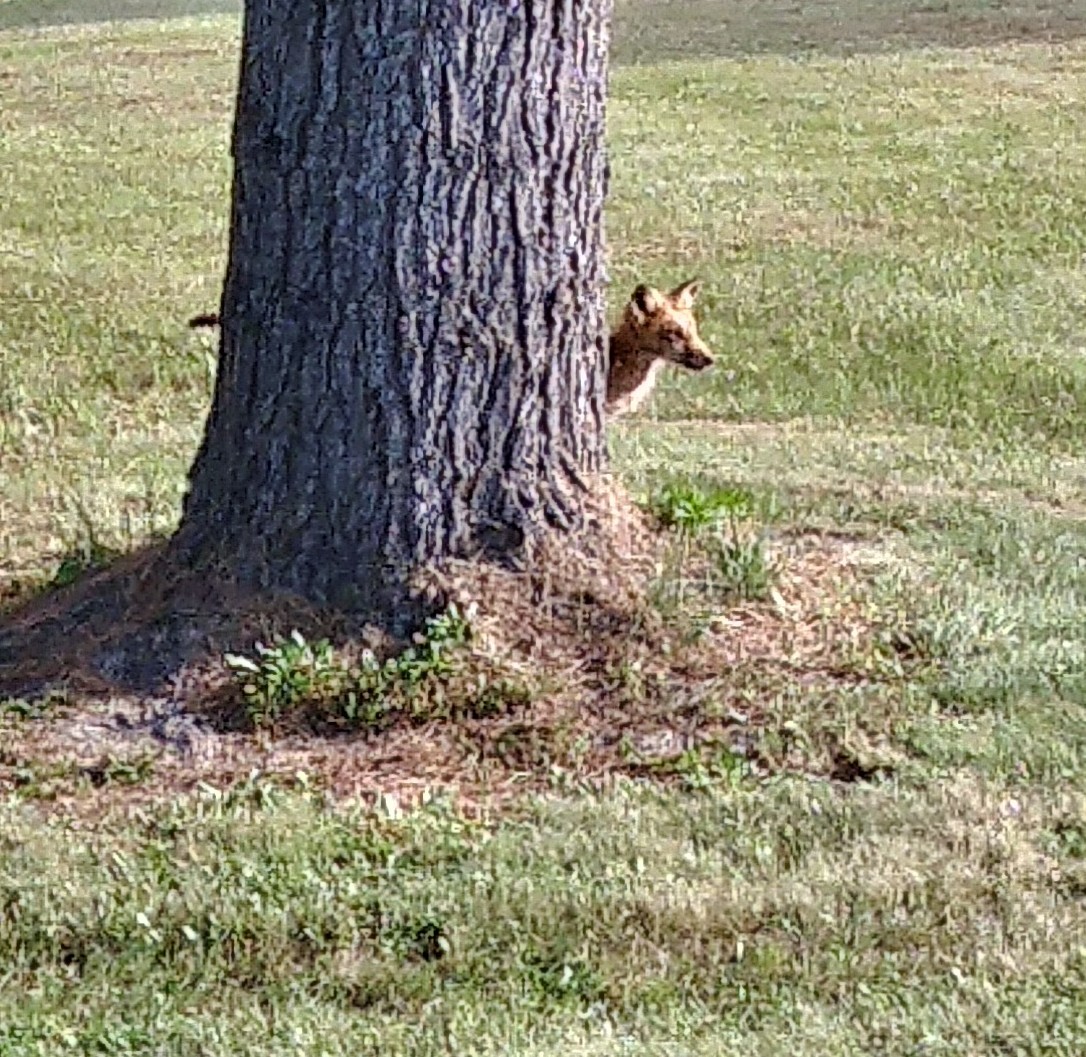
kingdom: Animalia
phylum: Chordata
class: Mammalia
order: Carnivora
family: Canidae
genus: Vulpes
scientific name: Vulpes vulpes
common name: Red fox
